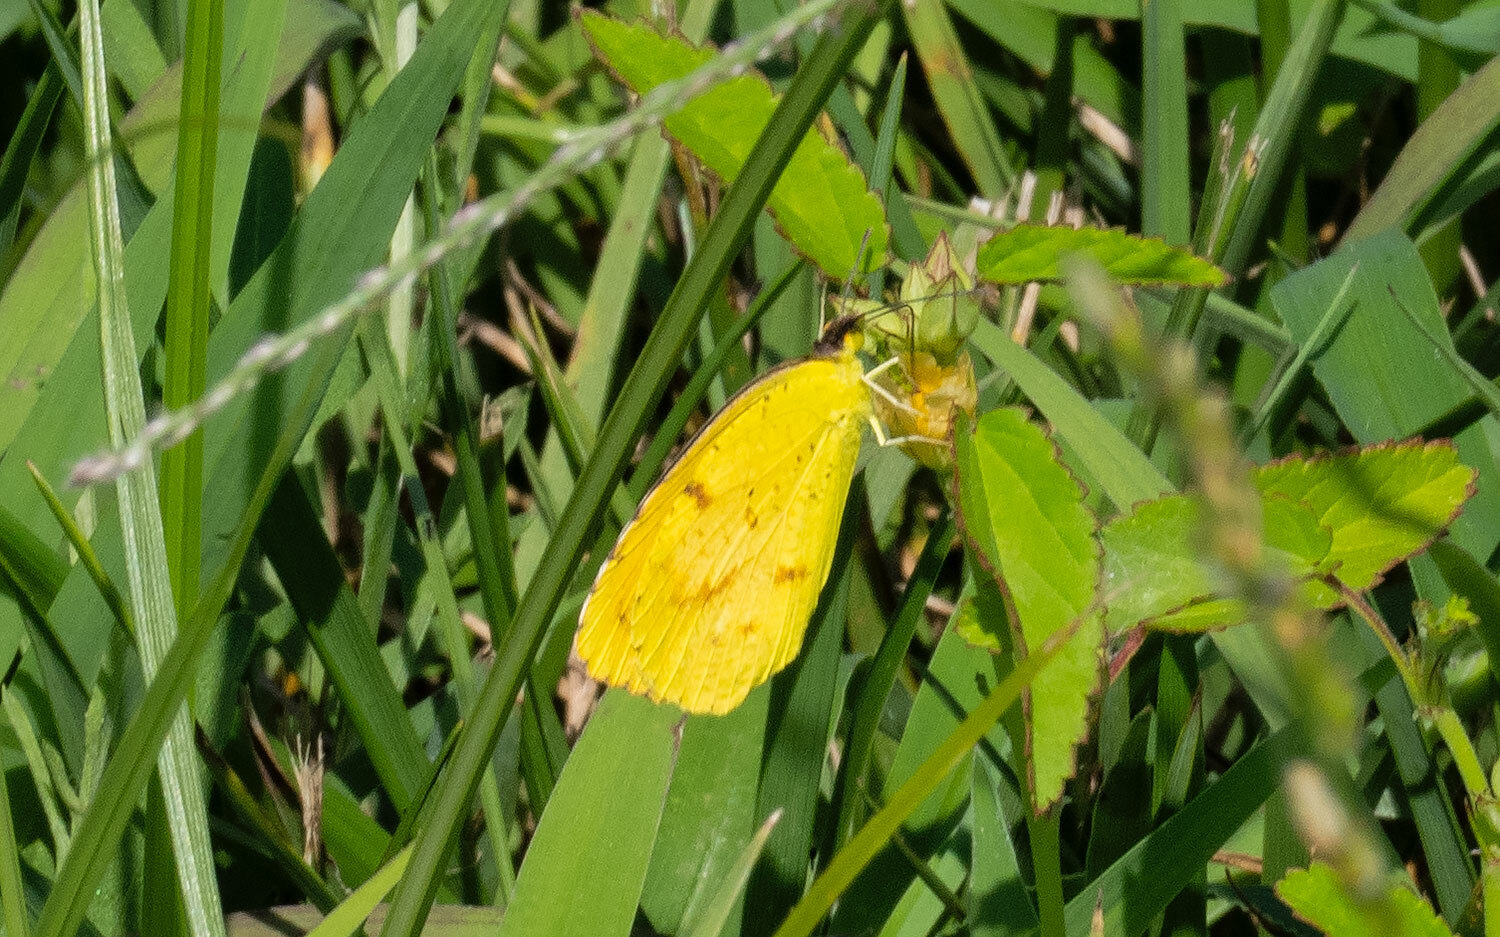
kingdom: Animalia
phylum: Arthropoda
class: Insecta
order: Lepidoptera
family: Pieridae
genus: Abaeis
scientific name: Abaeis nicippe
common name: Sleepy orange
